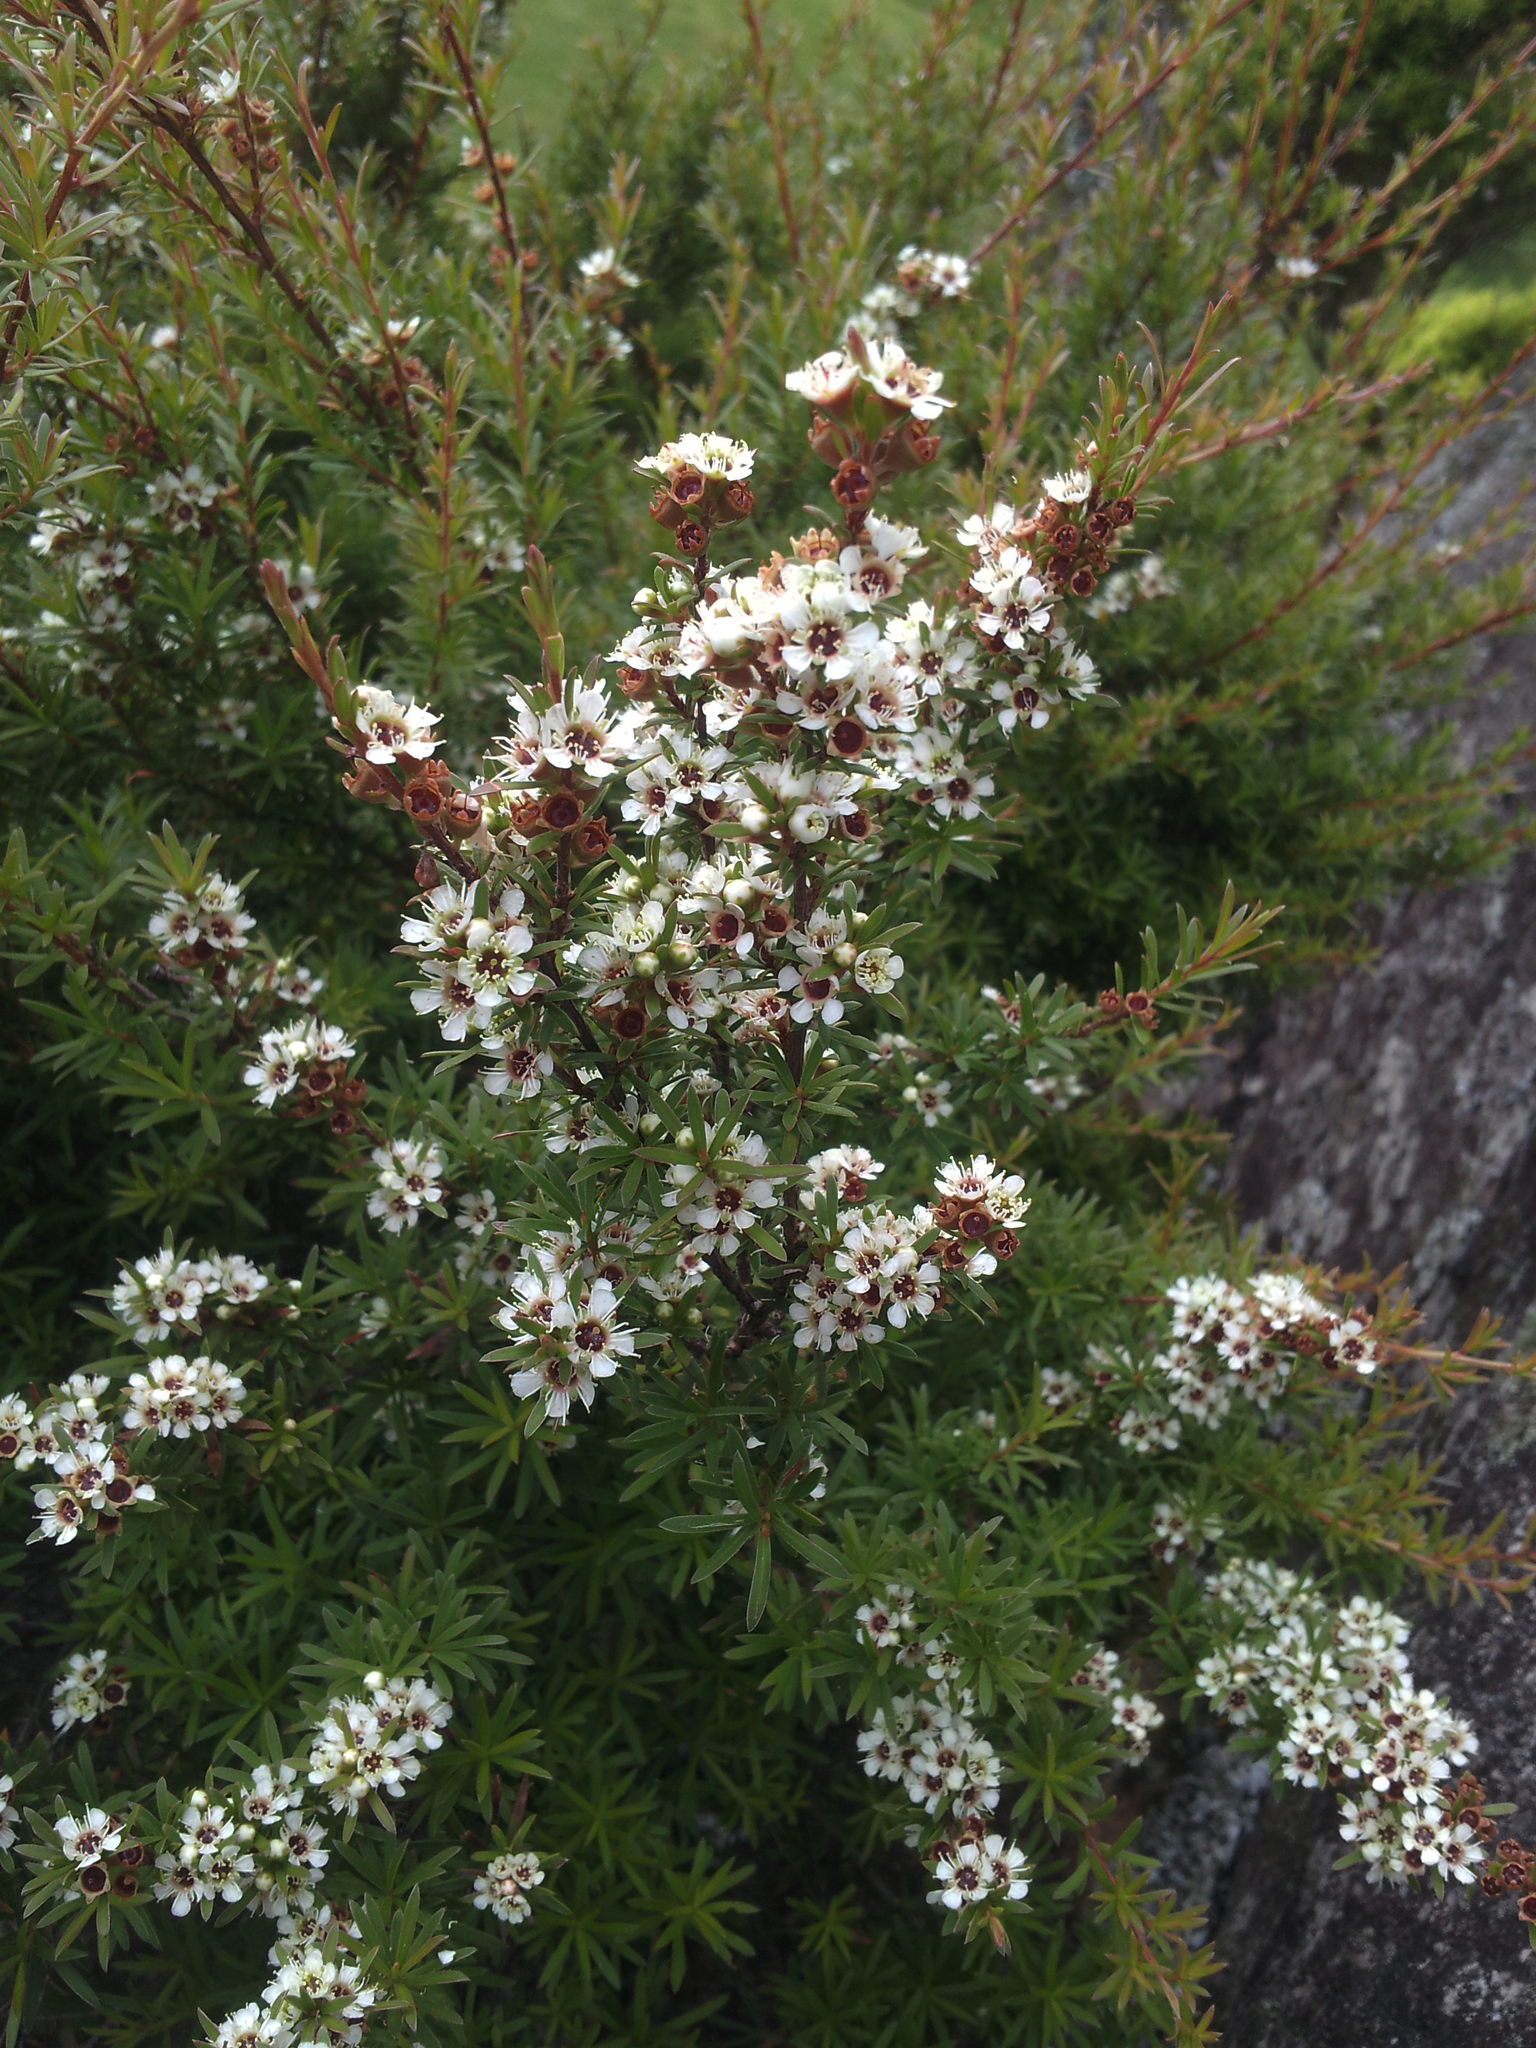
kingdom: Plantae
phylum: Tracheophyta
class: Magnoliopsida
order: Myrtales
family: Myrtaceae
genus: Kunzea
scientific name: Kunzea robusta
